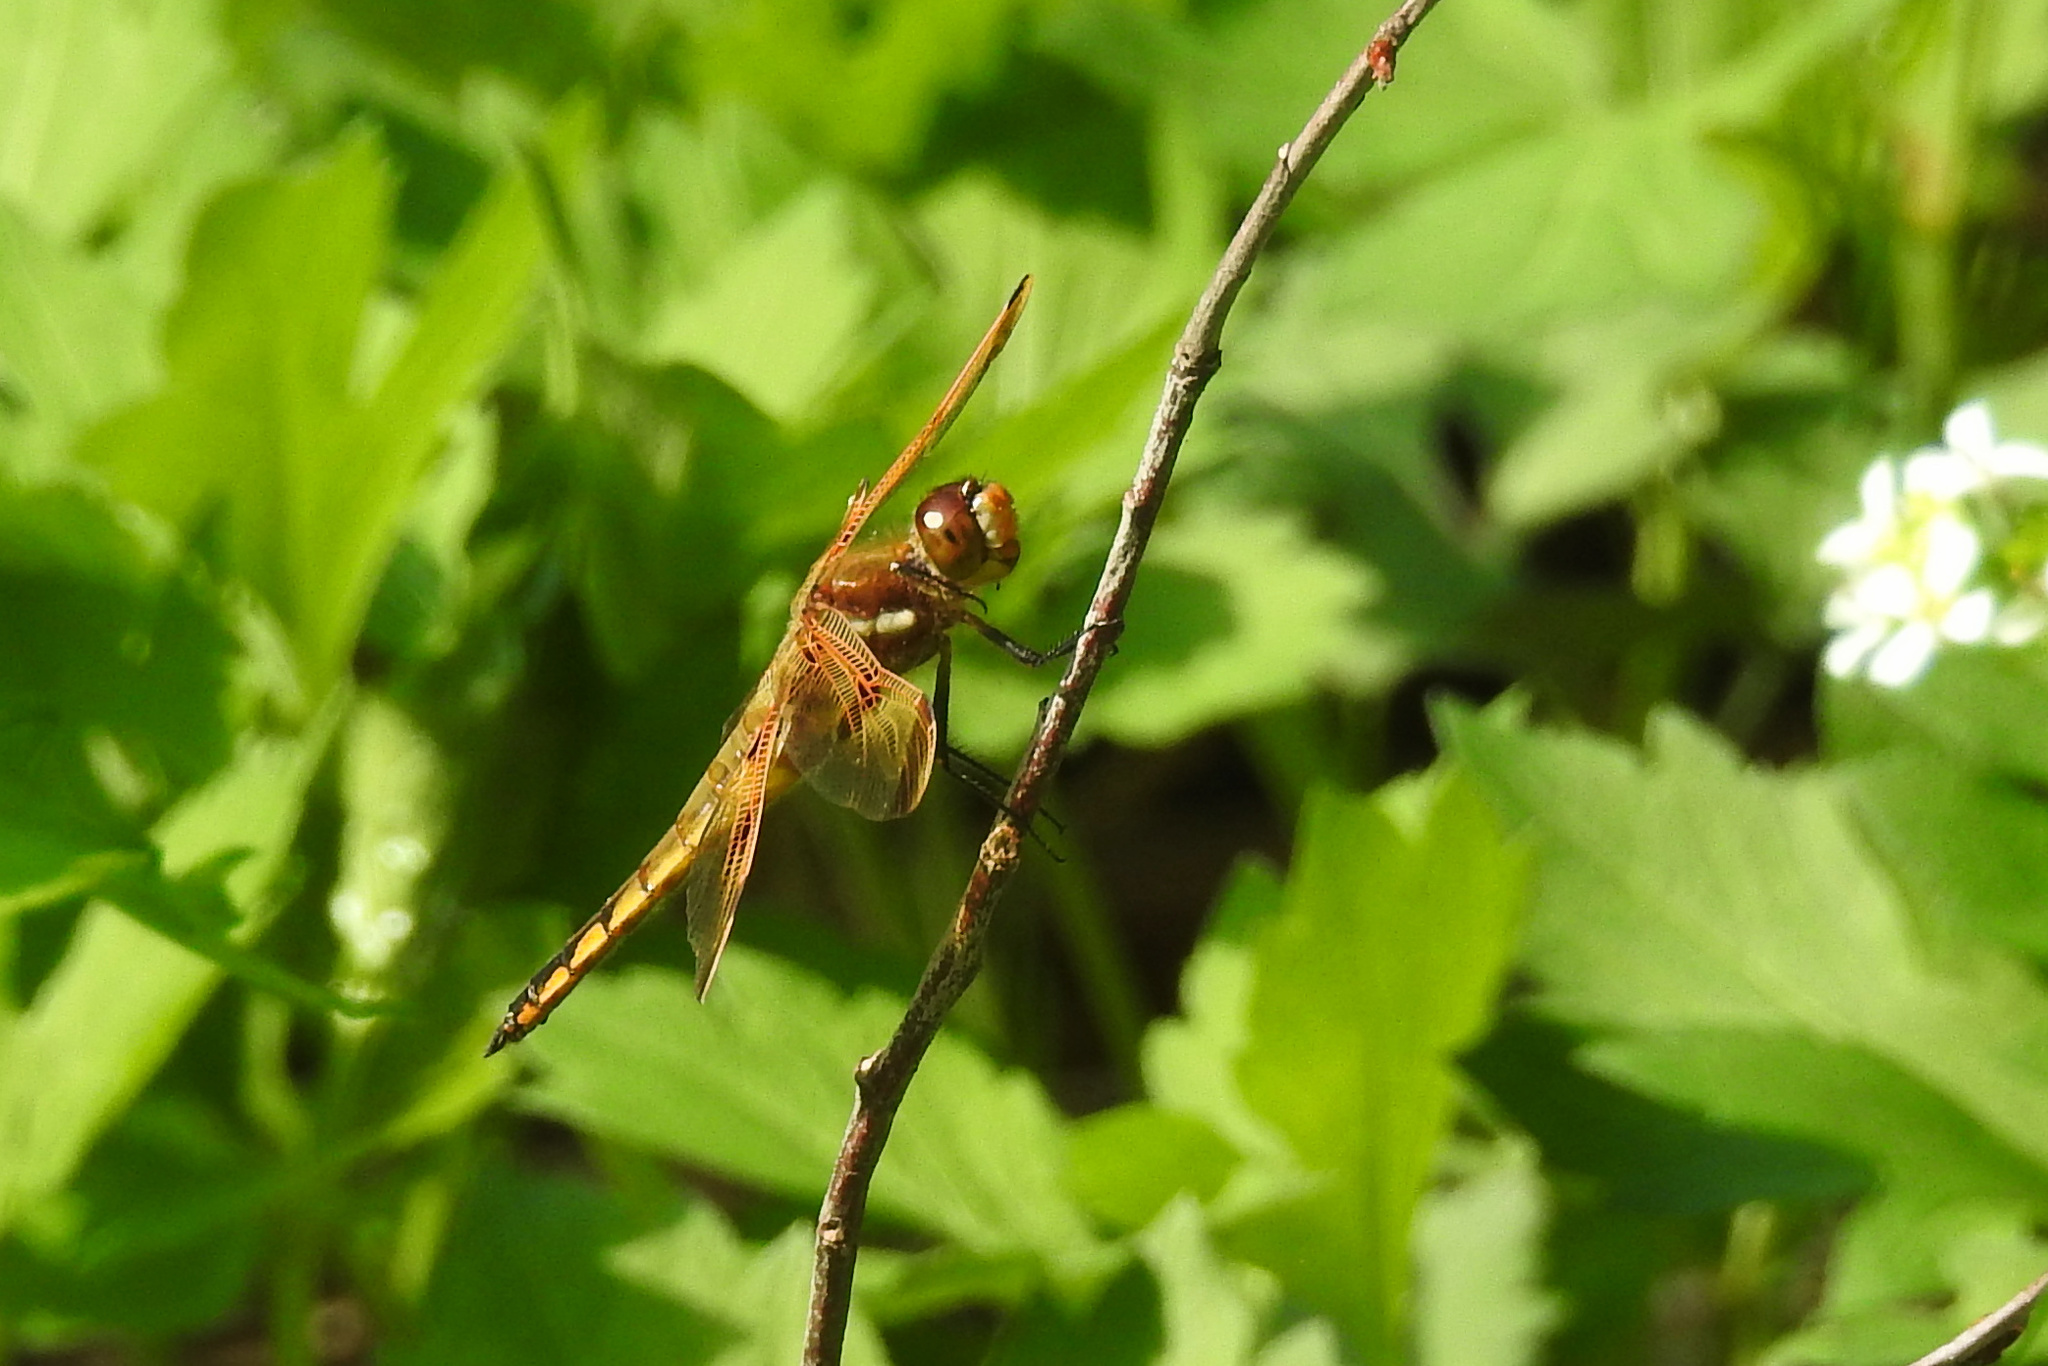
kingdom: Animalia
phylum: Arthropoda
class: Insecta
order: Odonata
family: Libellulidae
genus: Libellula
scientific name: Libellula semifasciata
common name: Painted skimmer
